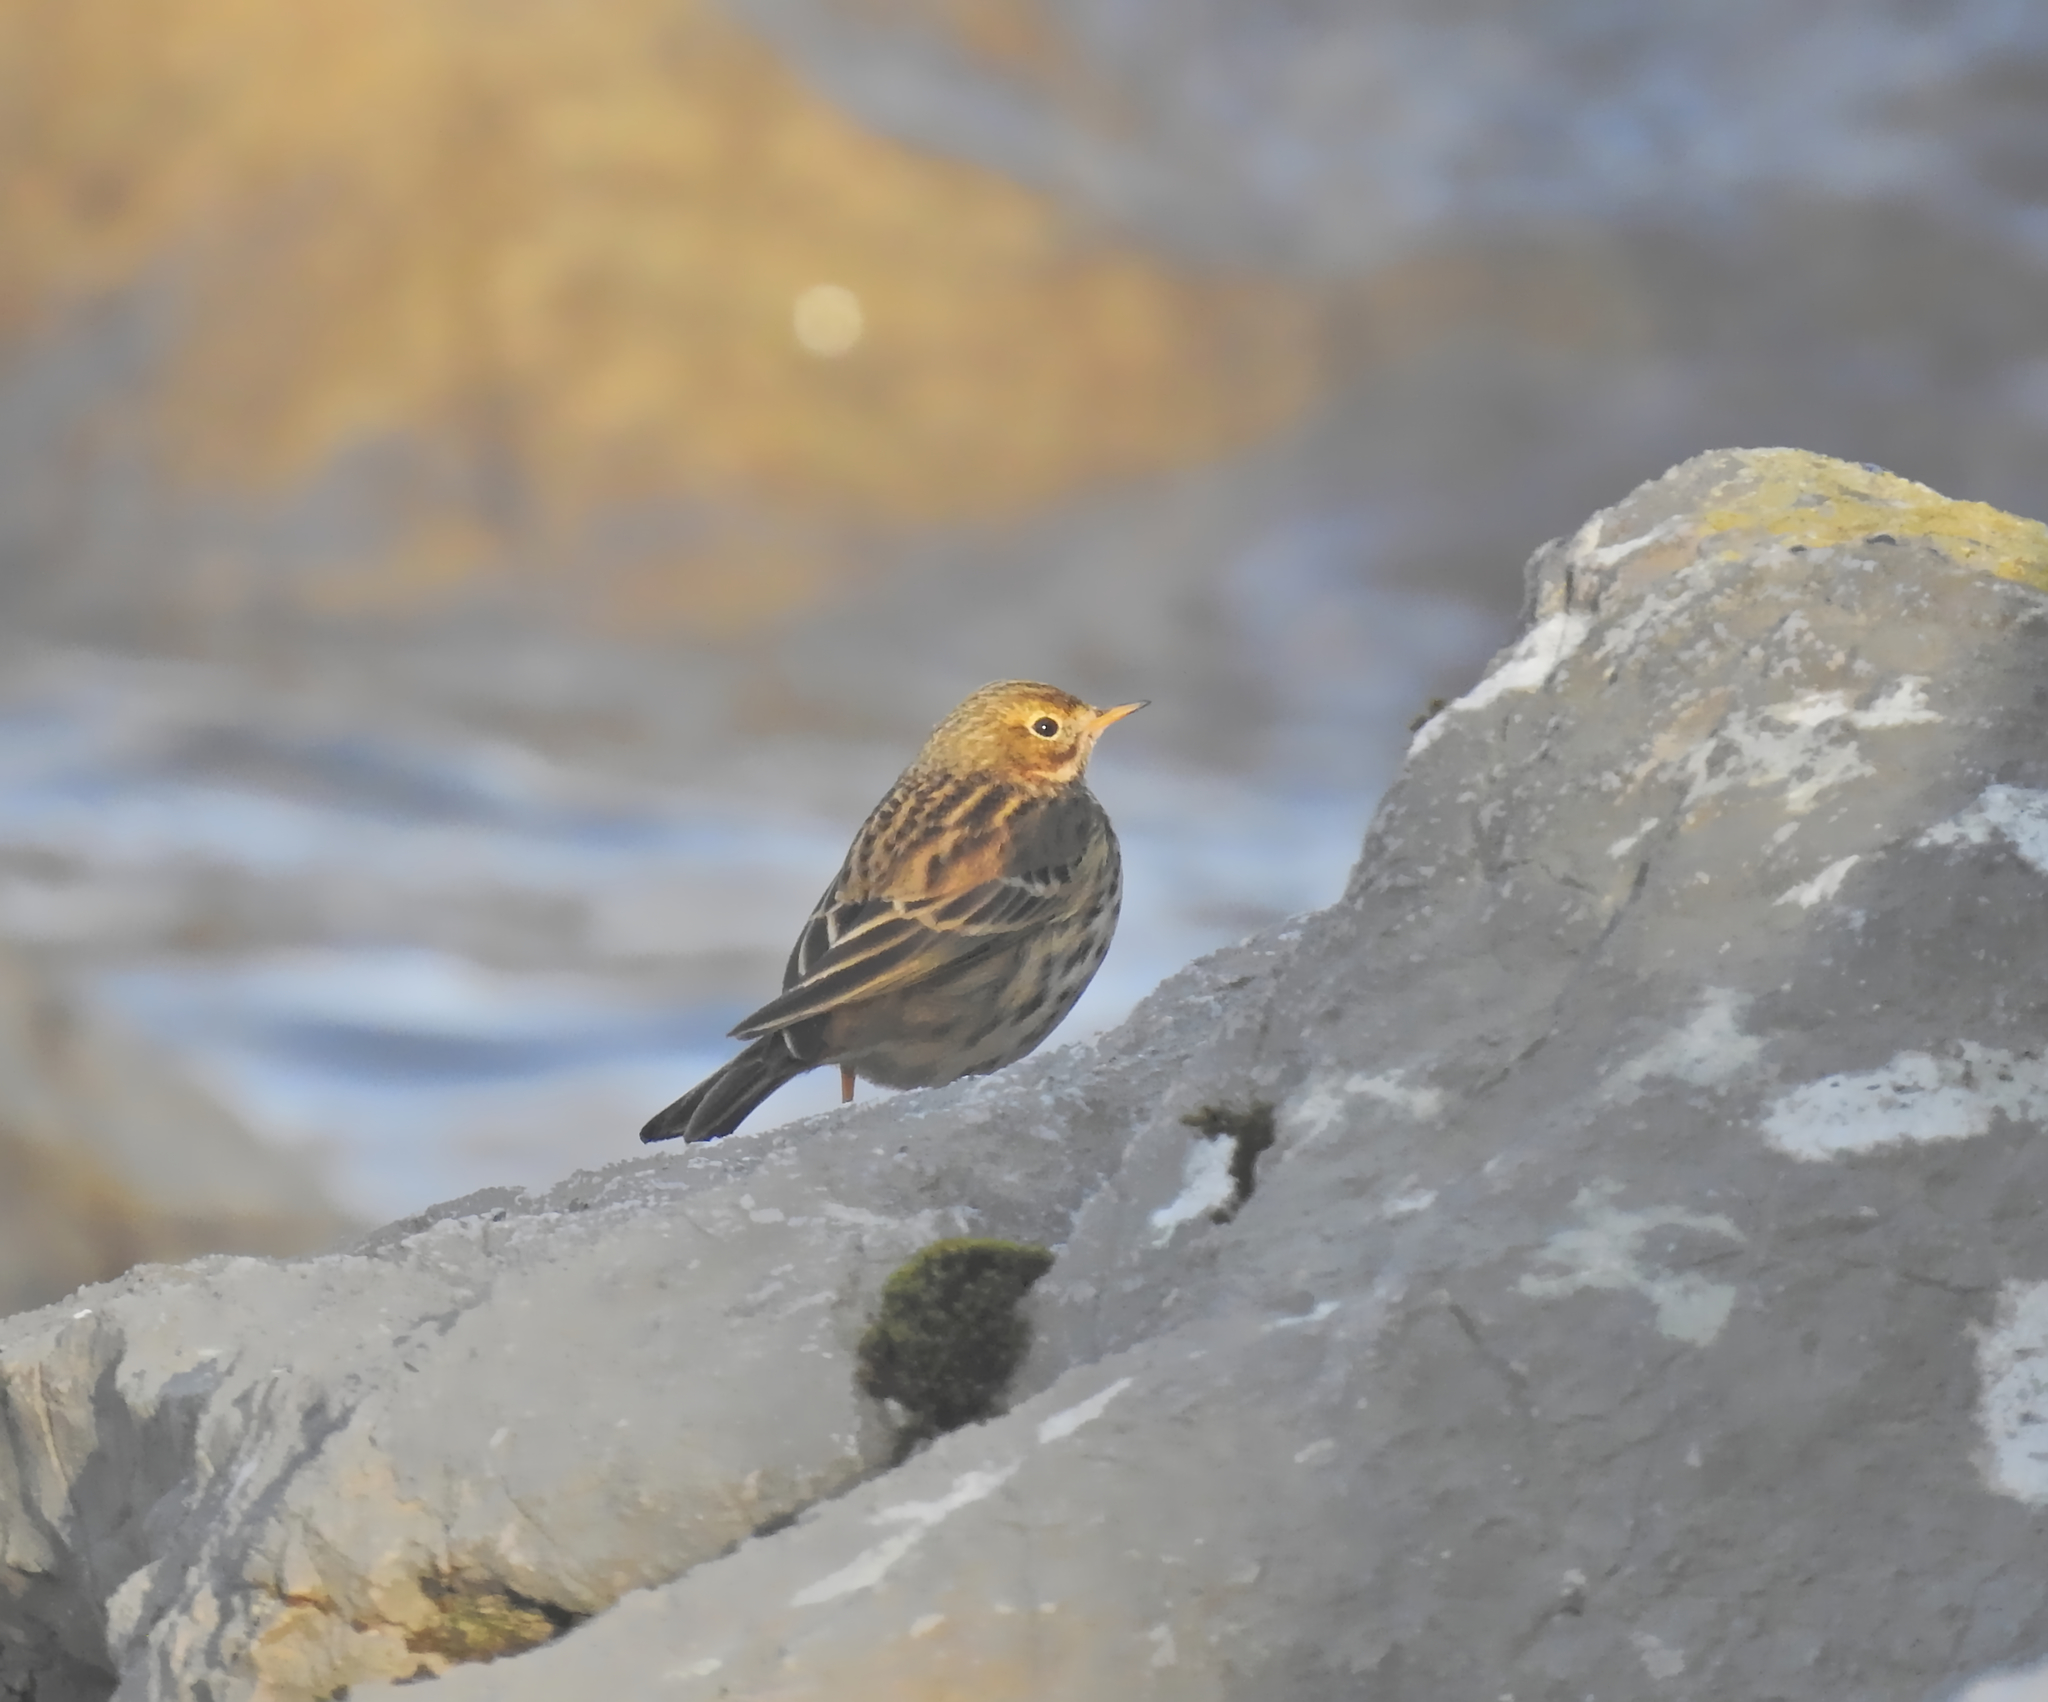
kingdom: Animalia
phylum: Chordata
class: Aves
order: Passeriformes
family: Motacillidae
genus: Anthus
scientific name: Anthus pratensis
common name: Meadow pipit
